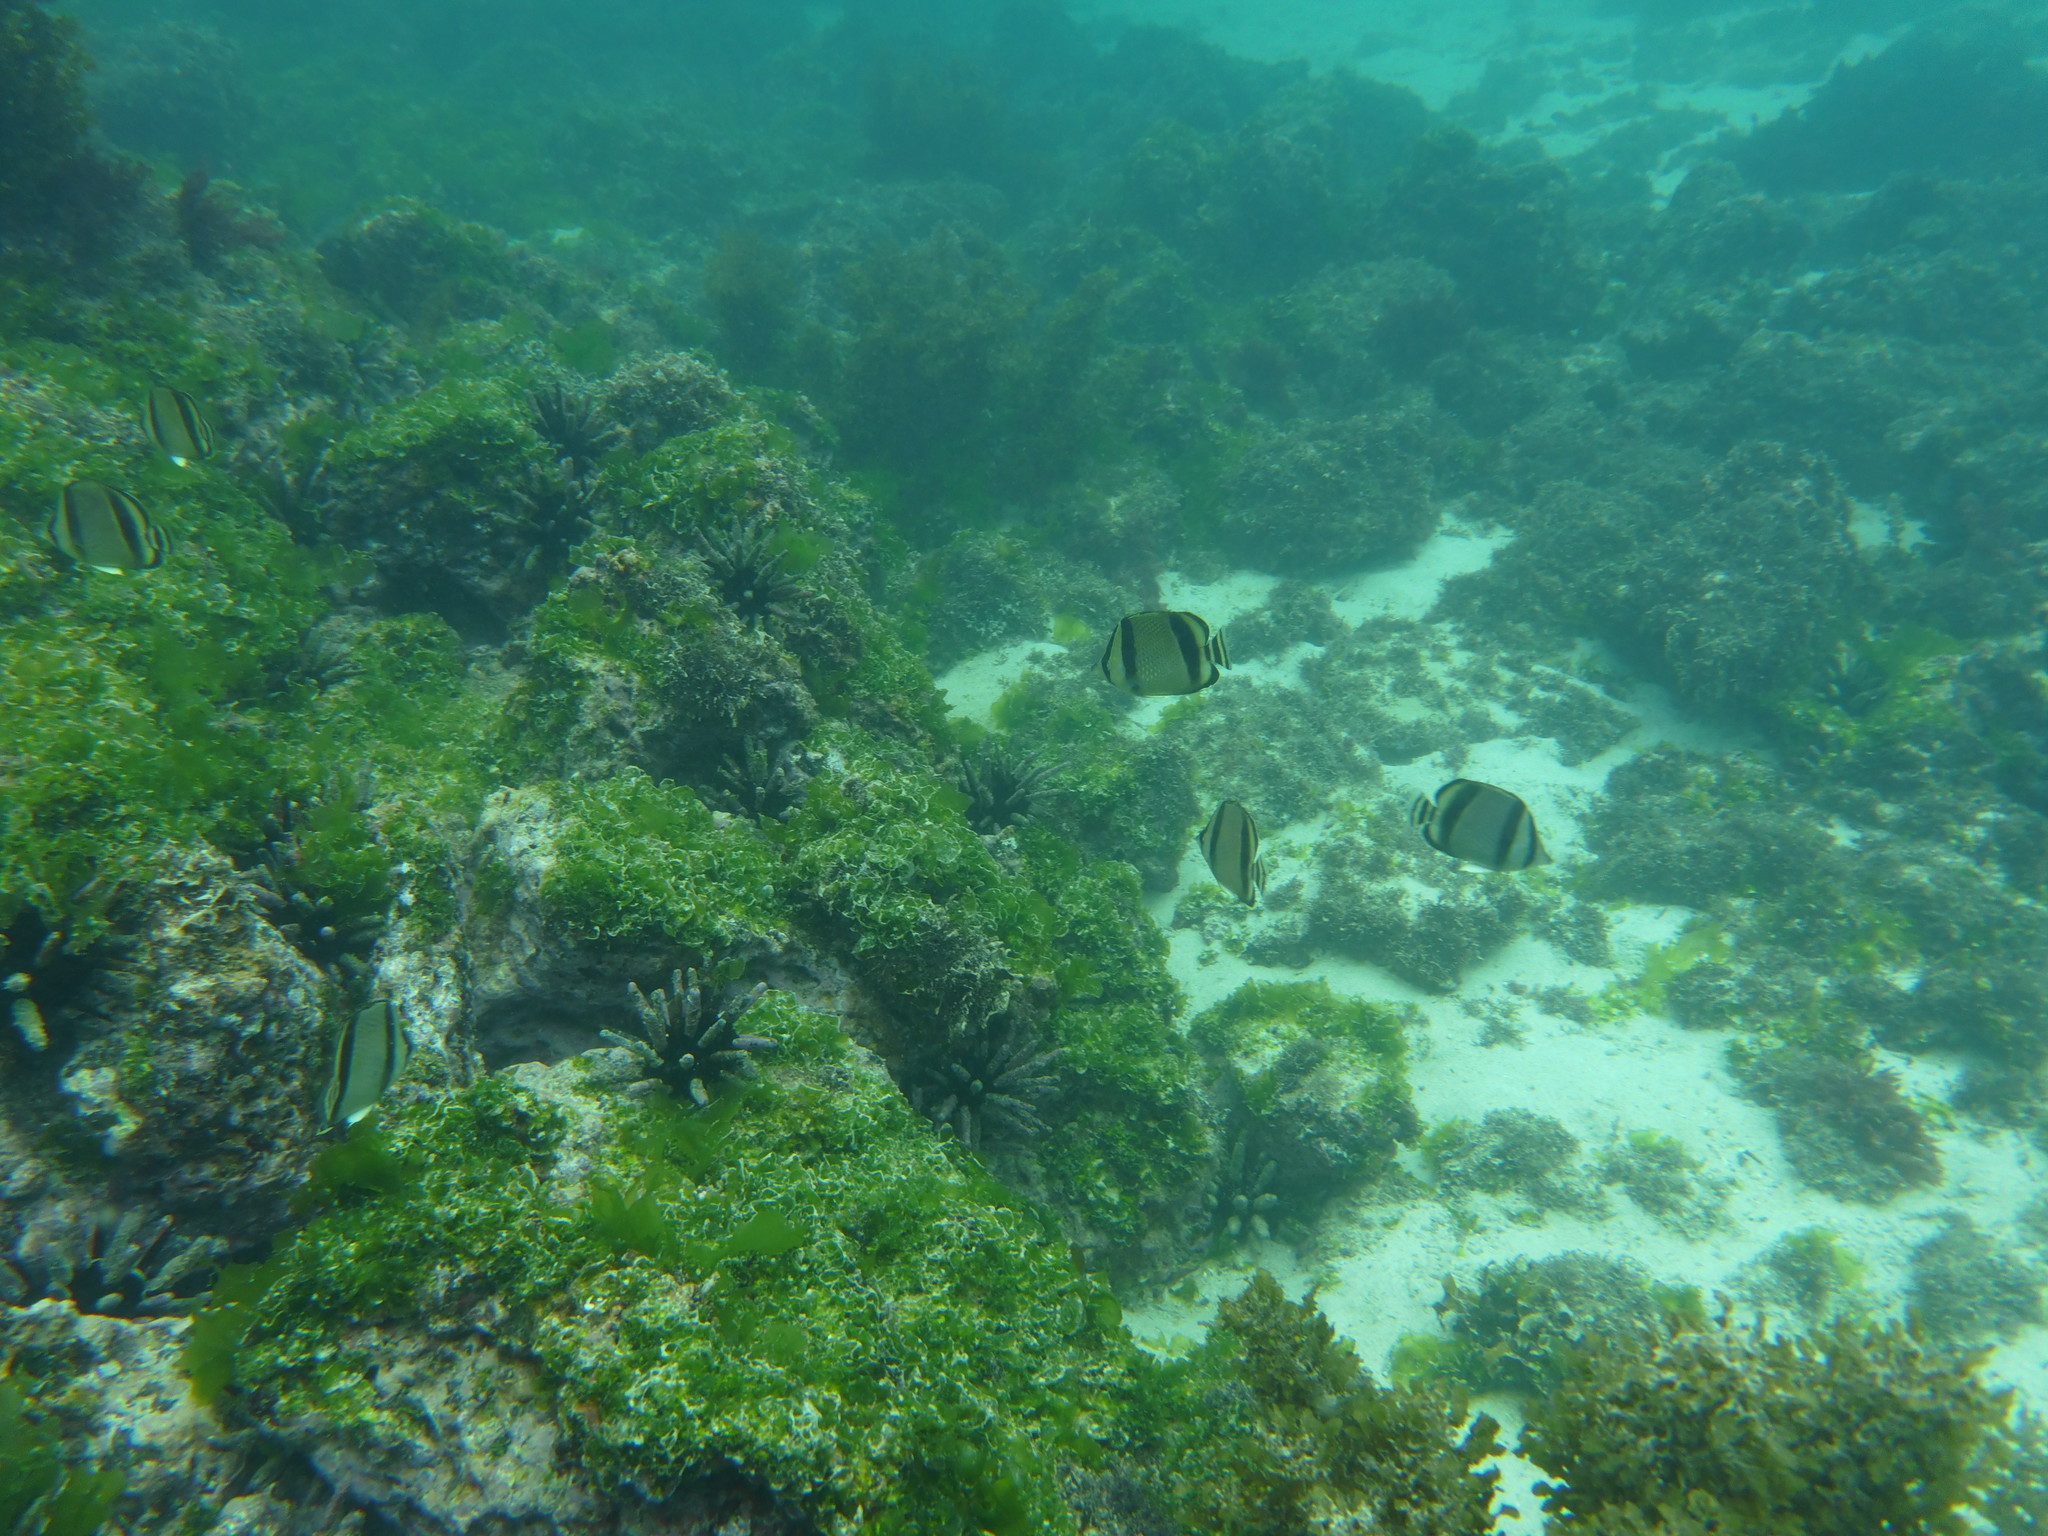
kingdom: Animalia
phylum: Chordata
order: Perciformes
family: Chaetodontidae
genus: Chaetodon
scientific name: Chaetodon humeralis
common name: Threebanded butterflyfish
